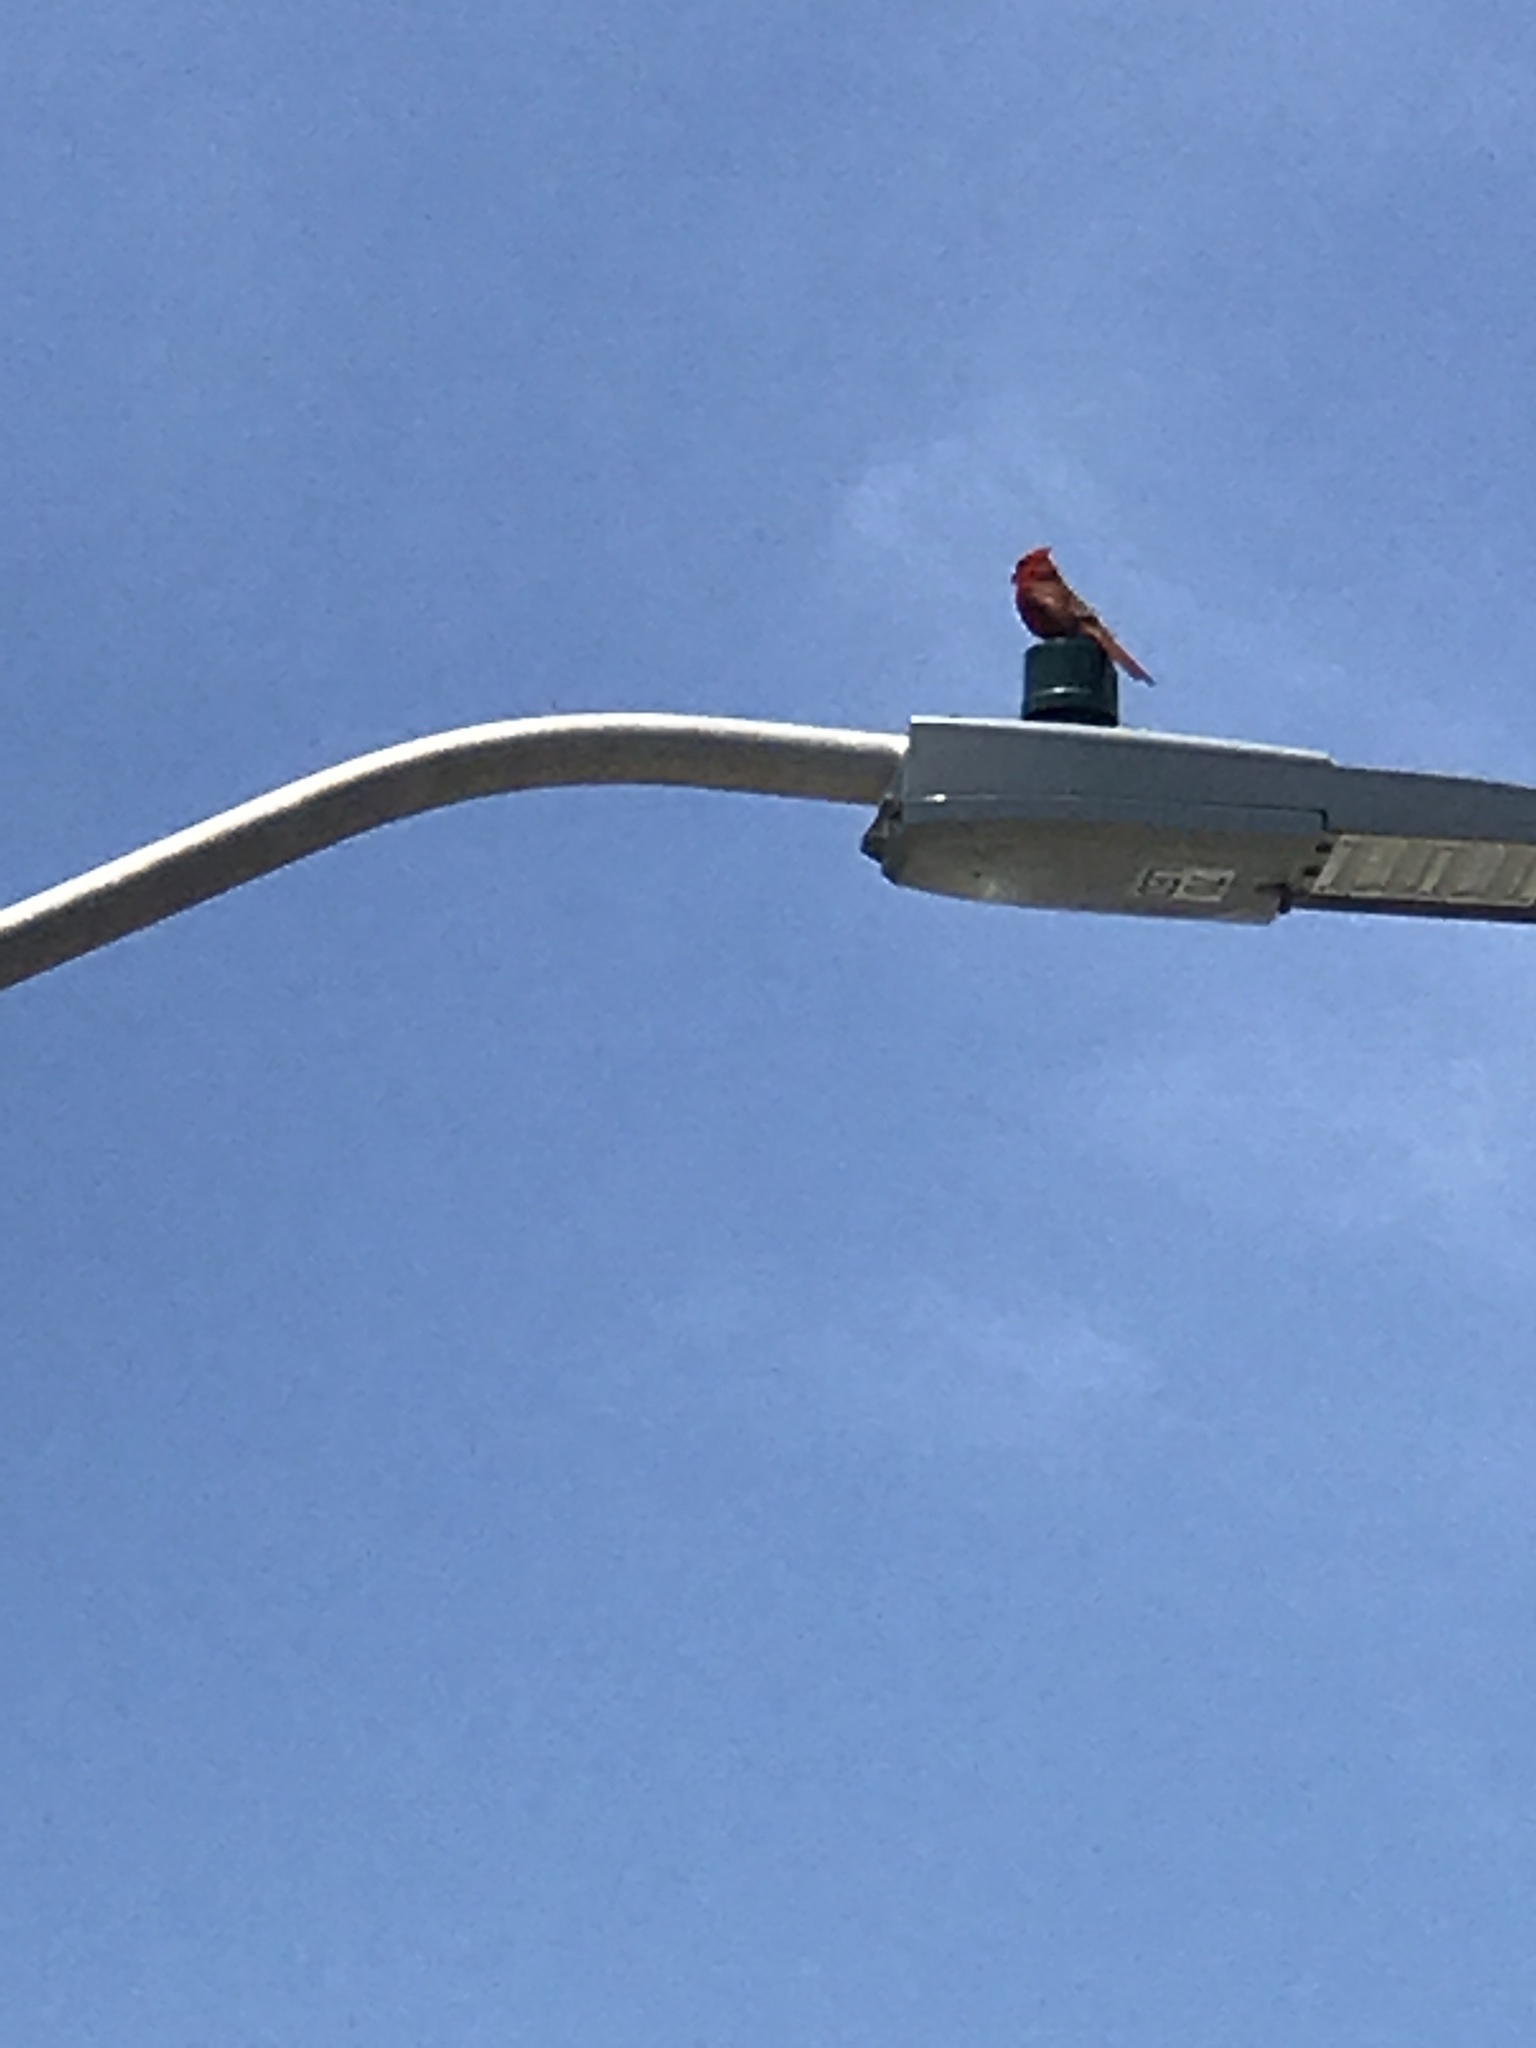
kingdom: Animalia
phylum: Chordata
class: Aves
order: Passeriformes
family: Cardinalidae
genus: Cardinalis
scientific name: Cardinalis cardinalis
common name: Northern cardinal
